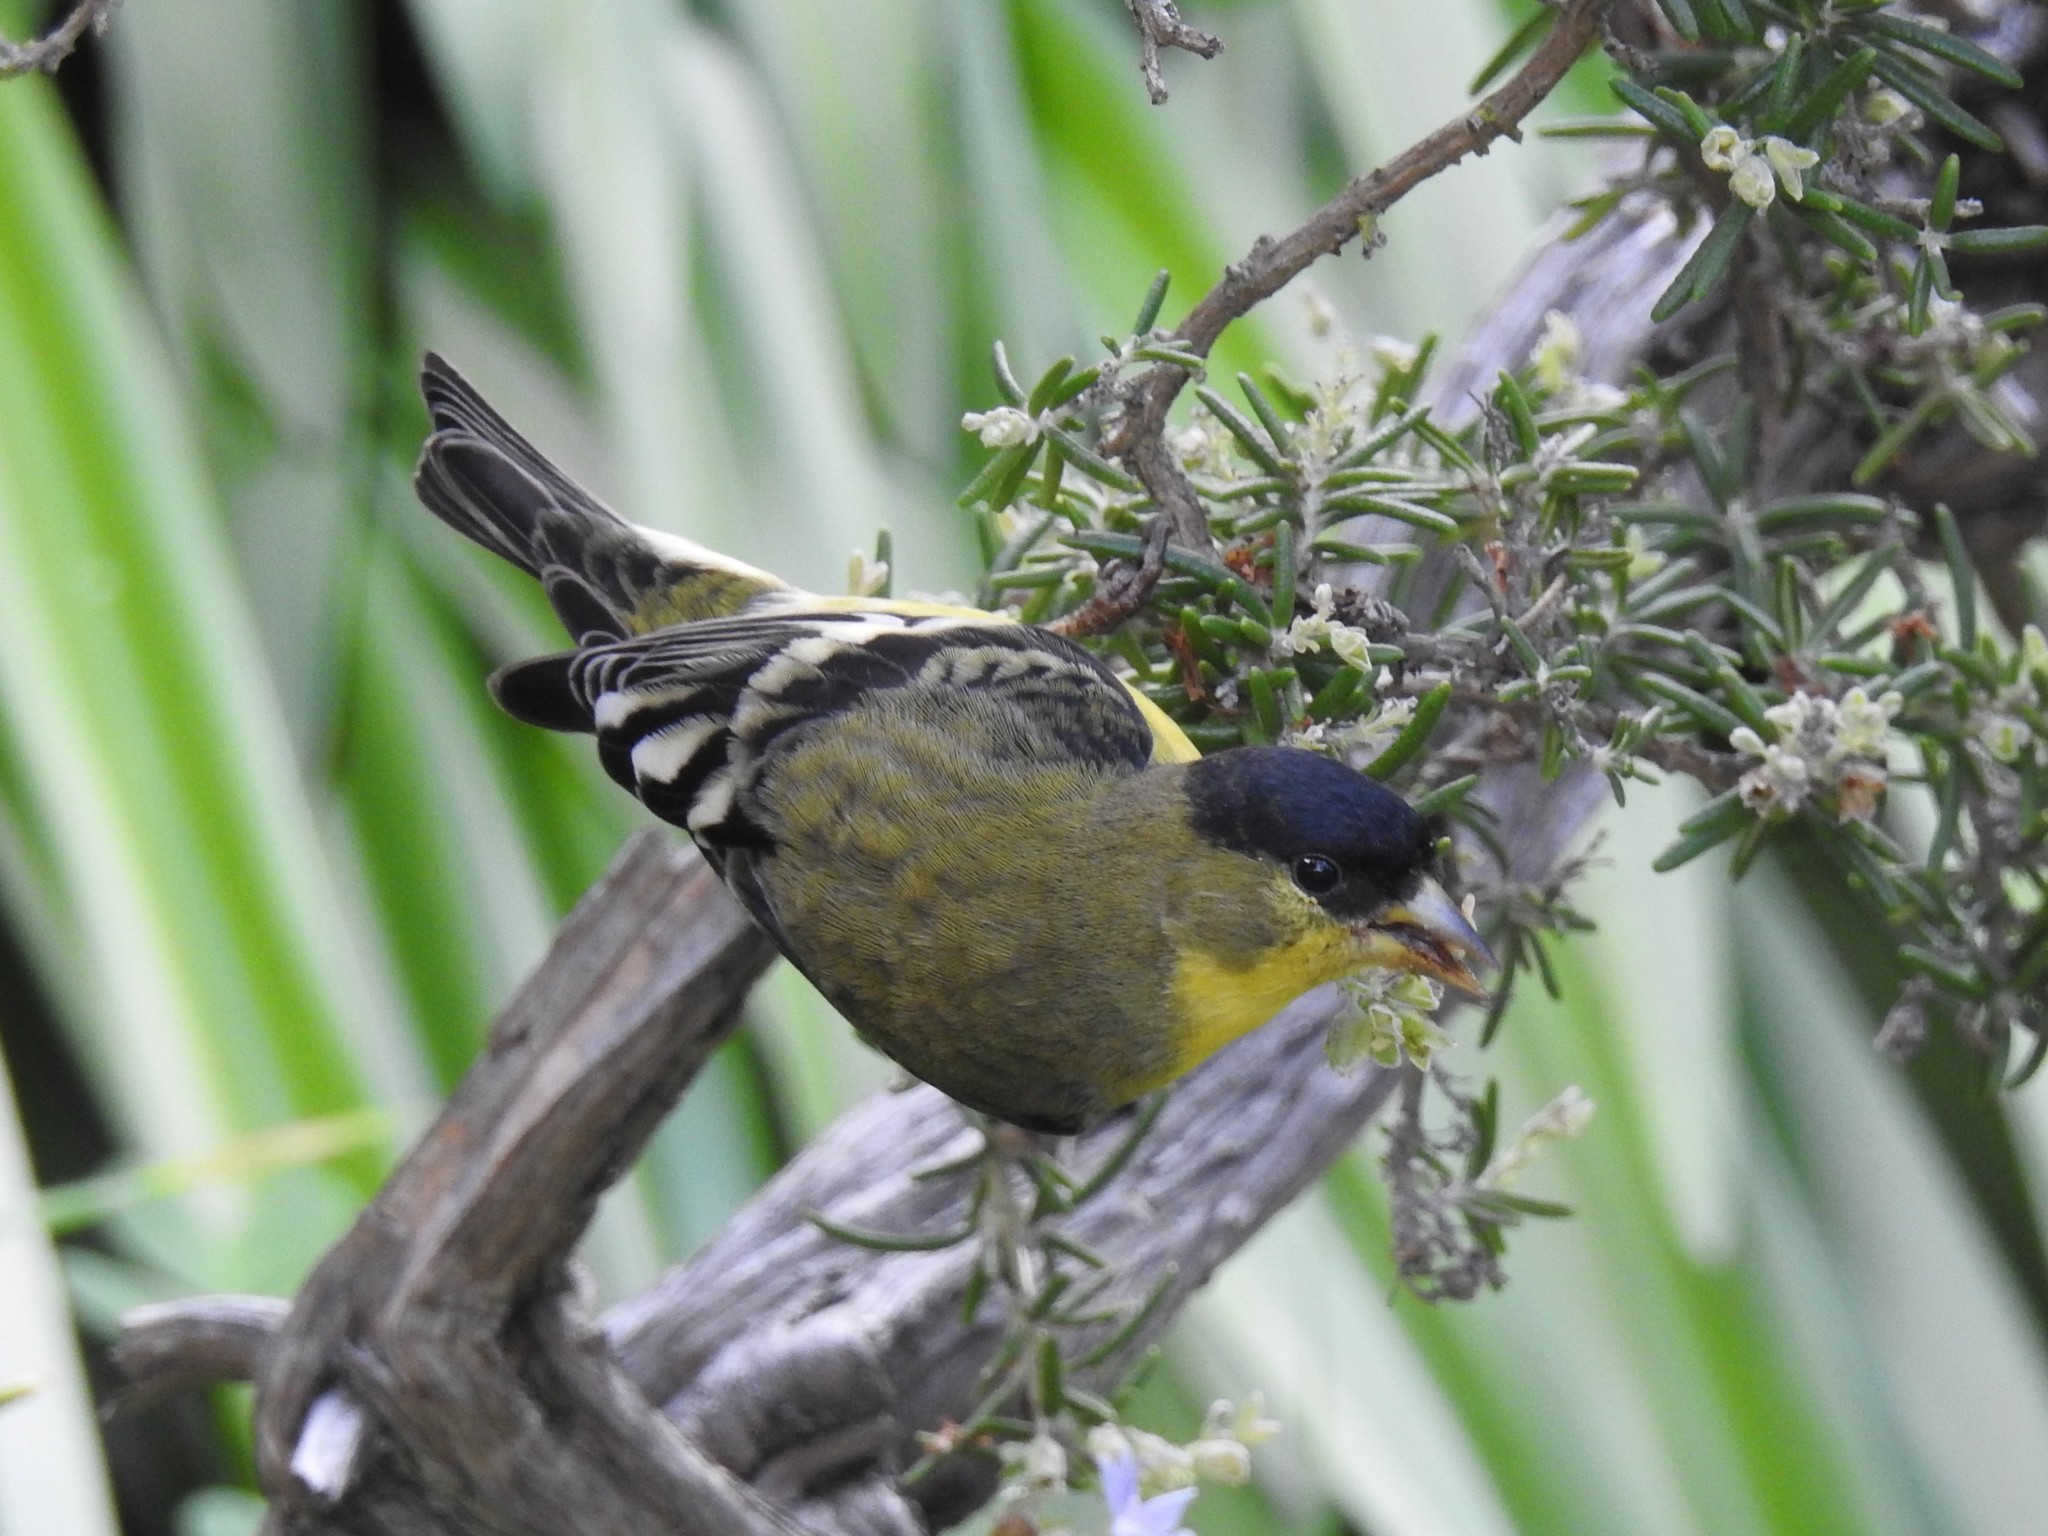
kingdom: Animalia
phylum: Chordata
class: Aves
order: Passeriformes
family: Fringillidae
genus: Spinus
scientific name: Spinus psaltria
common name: Lesser goldfinch
